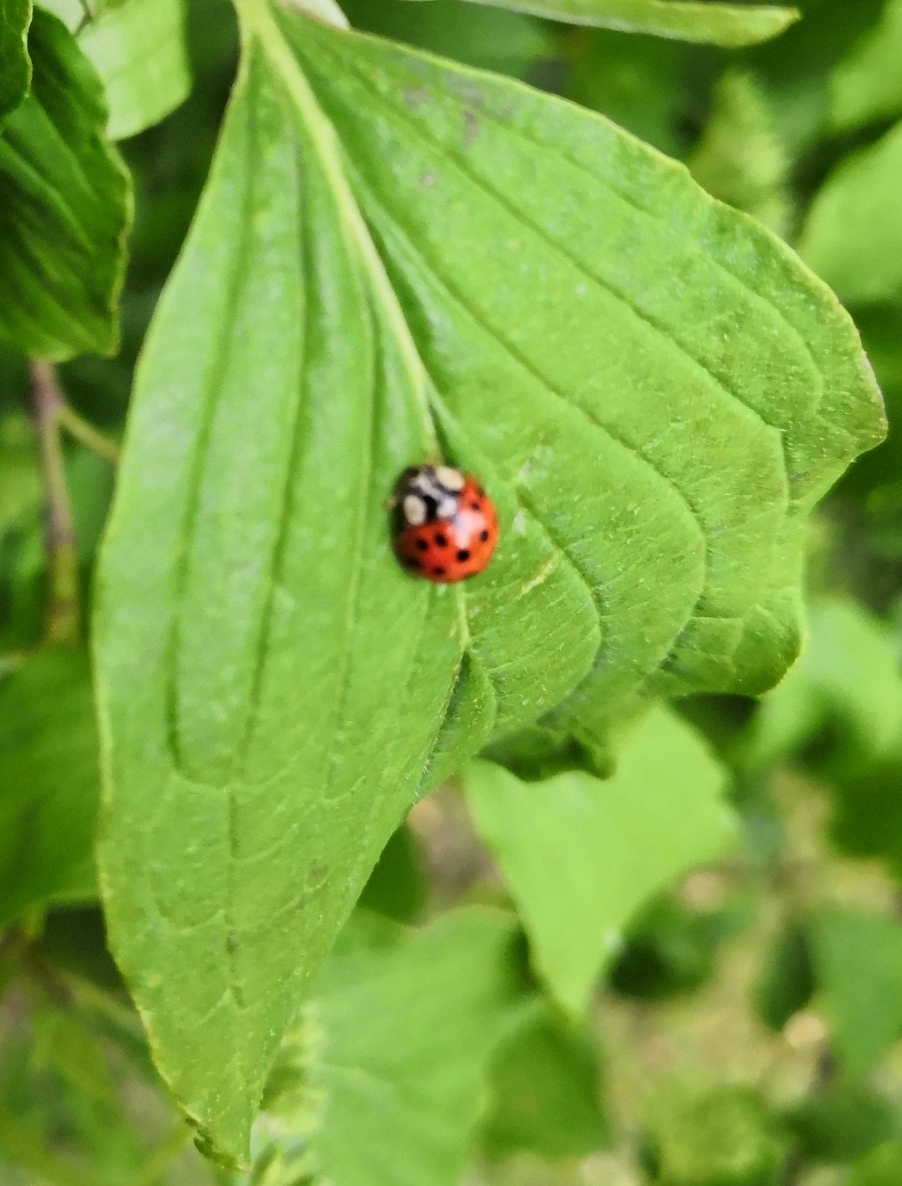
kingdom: Animalia
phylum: Arthropoda
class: Insecta
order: Coleoptera
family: Coccinellidae
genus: Harmonia
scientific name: Harmonia axyridis
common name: Harlequin ladybird
